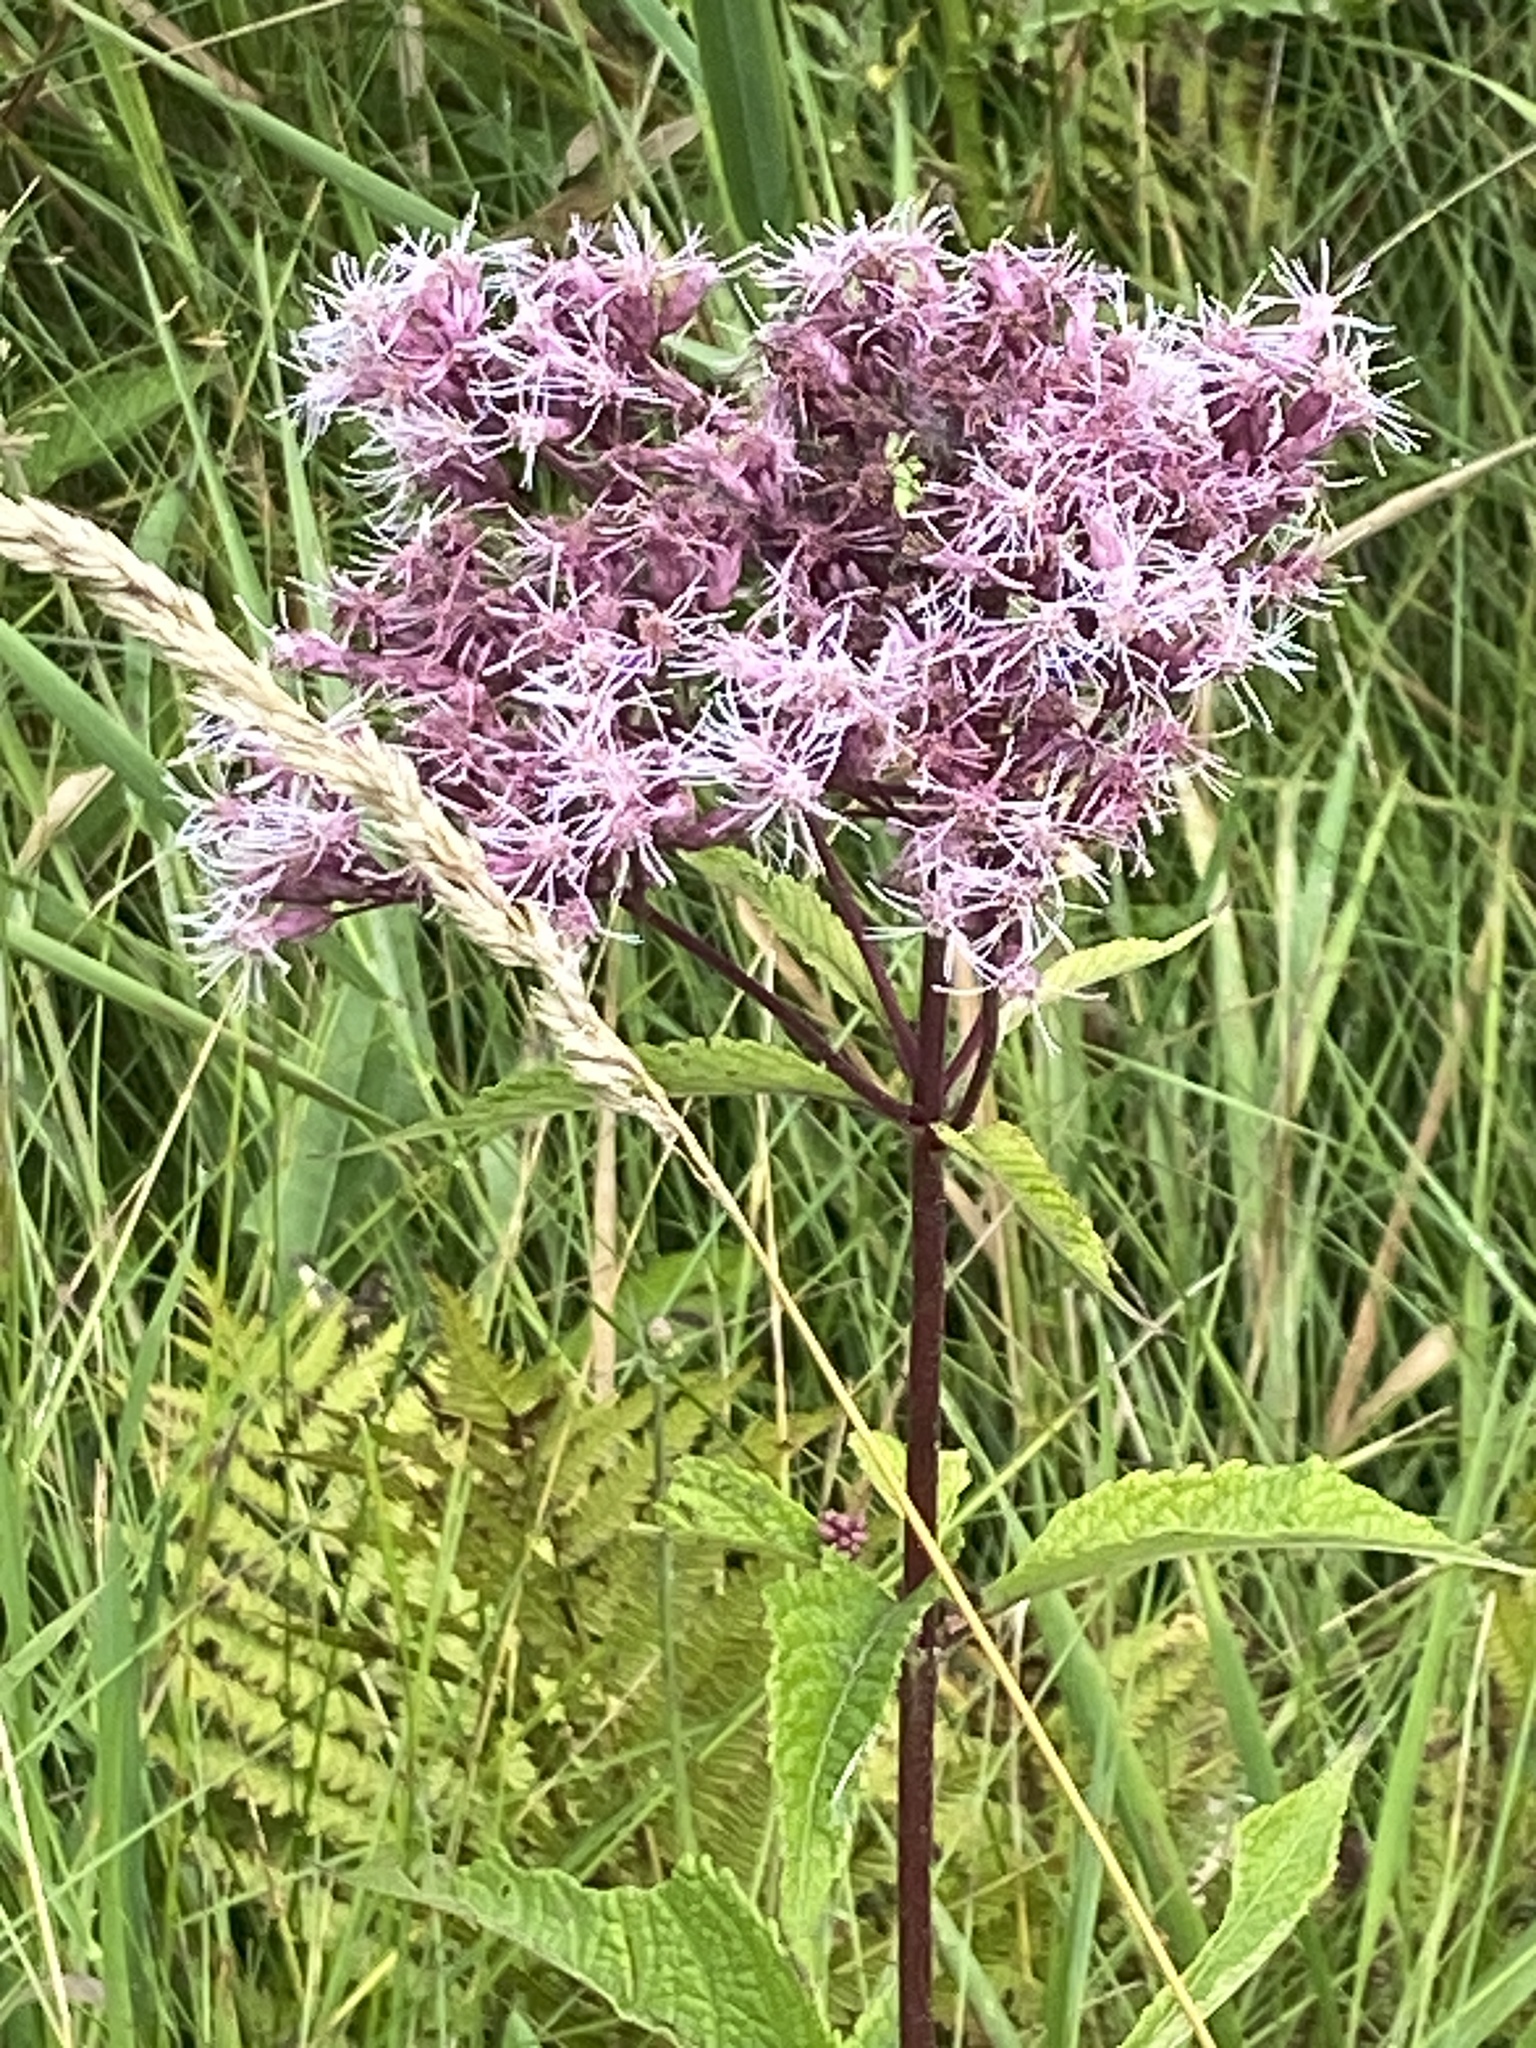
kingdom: Plantae
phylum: Tracheophyta
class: Magnoliopsida
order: Asterales
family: Asteraceae
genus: Eutrochium
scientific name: Eutrochium maculatum
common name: Spotted joe pye weed
